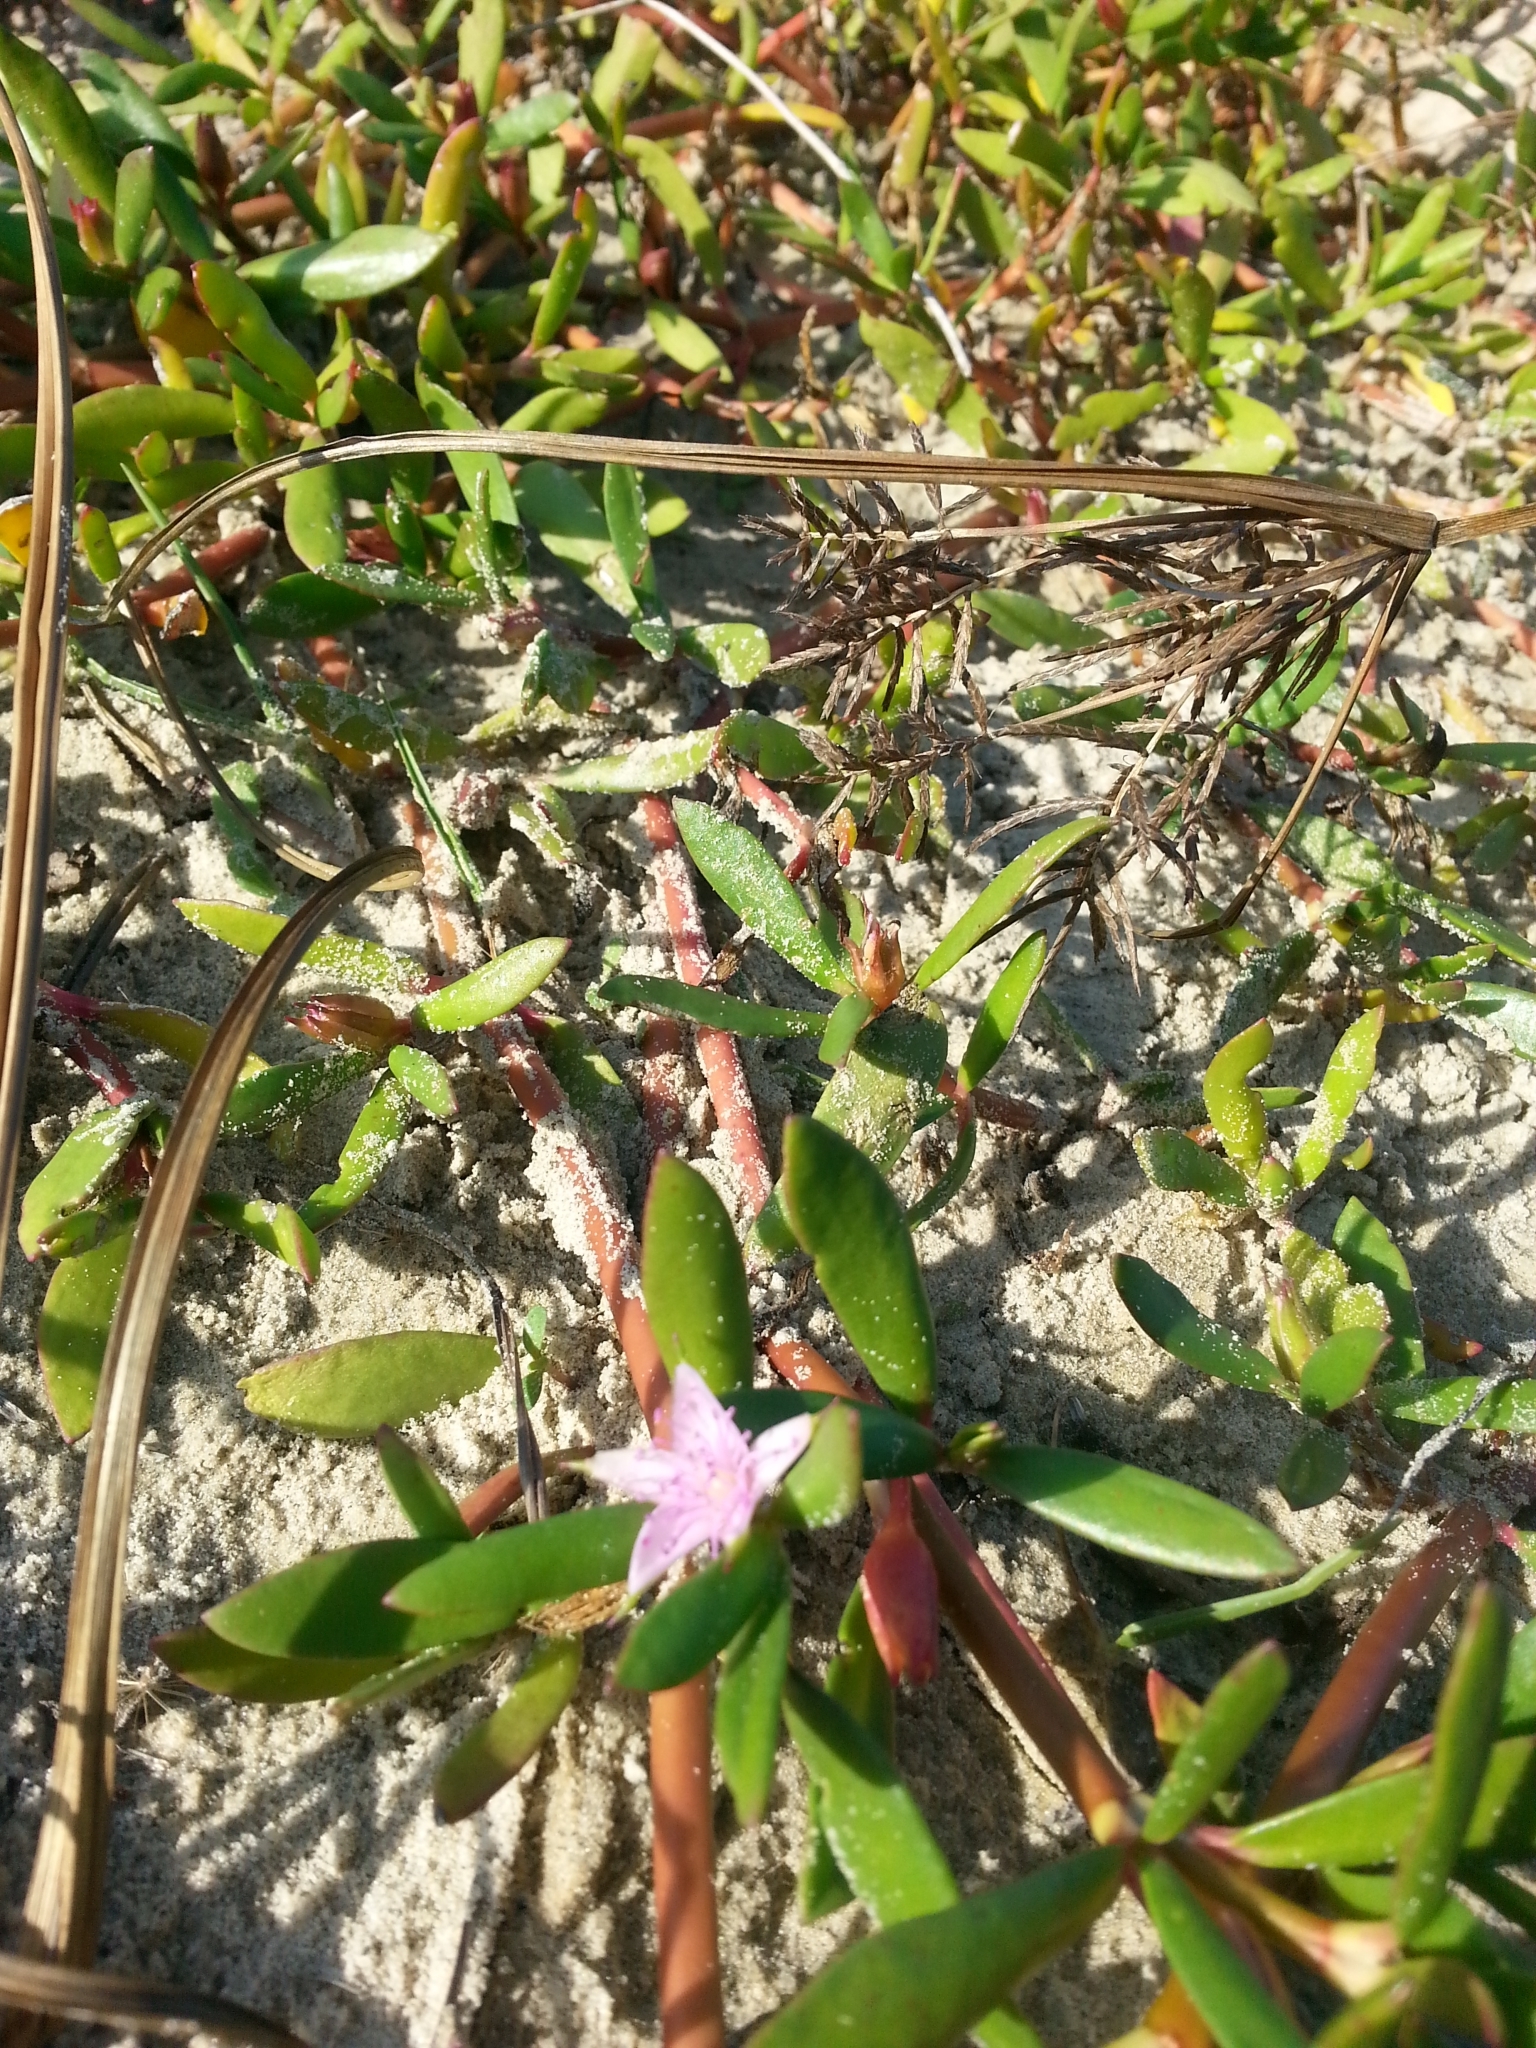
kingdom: Plantae
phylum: Tracheophyta
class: Magnoliopsida
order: Caryophyllales
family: Aizoaceae
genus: Sesuvium
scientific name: Sesuvium portulacastrum
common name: Sea-purslane
